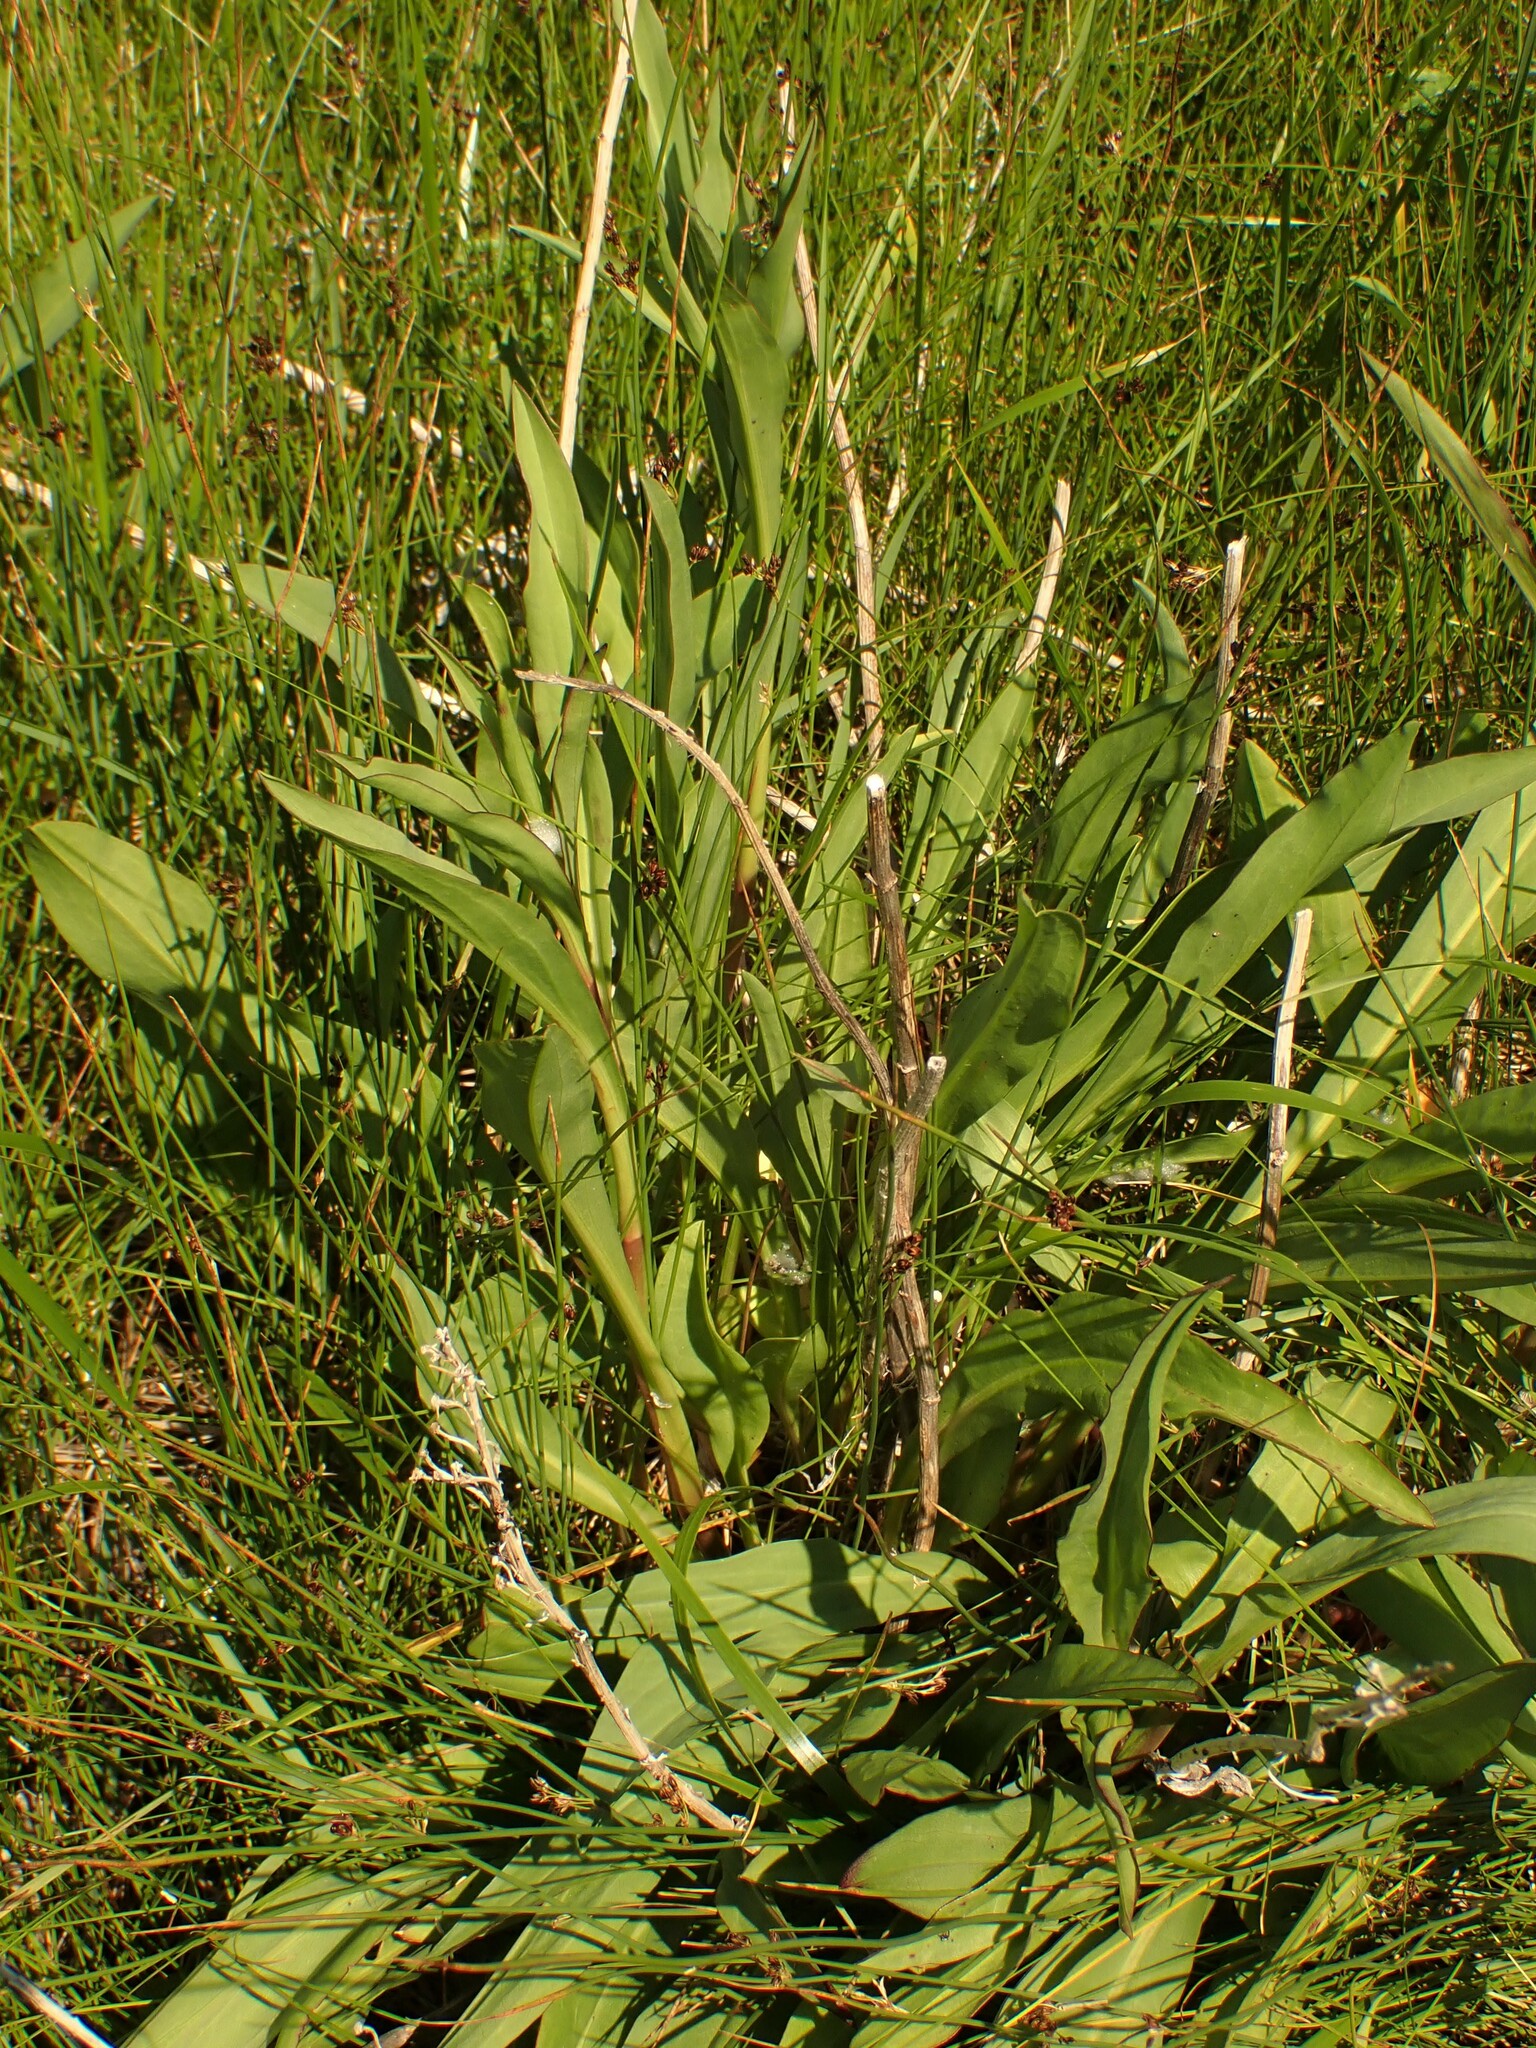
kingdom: Plantae
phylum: Tracheophyta
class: Magnoliopsida
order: Asterales
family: Asteraceae
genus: Solidago
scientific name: Solidago sempervirens
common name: Salt-marsh goldenrod
